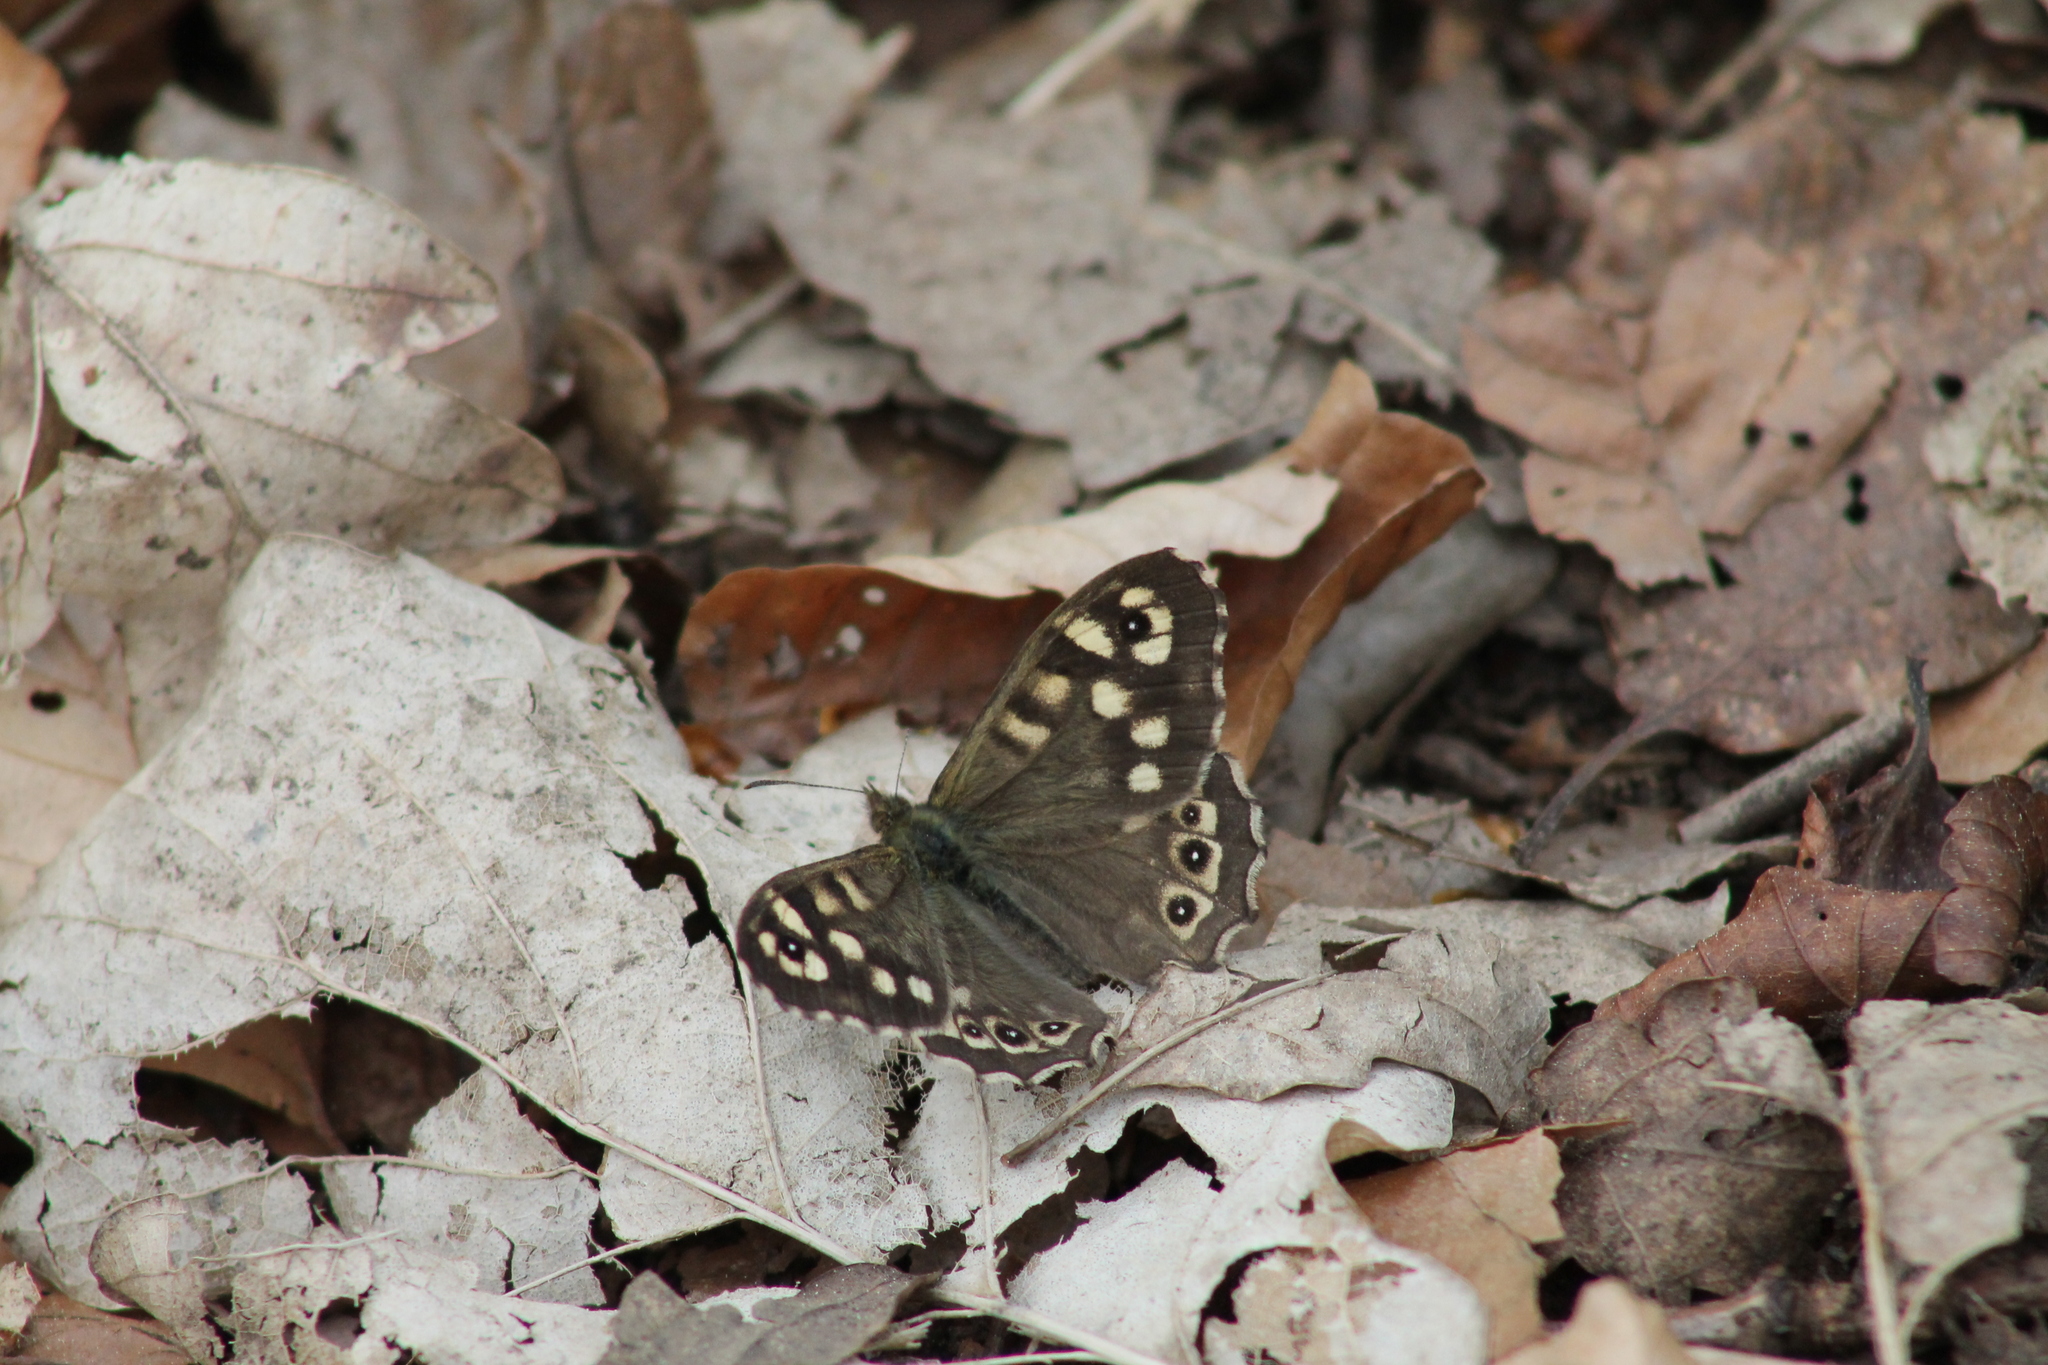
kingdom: Animalia
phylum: Arthropoda
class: Insecta
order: Lepidoptera
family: Nymphalidae
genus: Pararge
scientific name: Pararge aegeria
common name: Speckled wood
